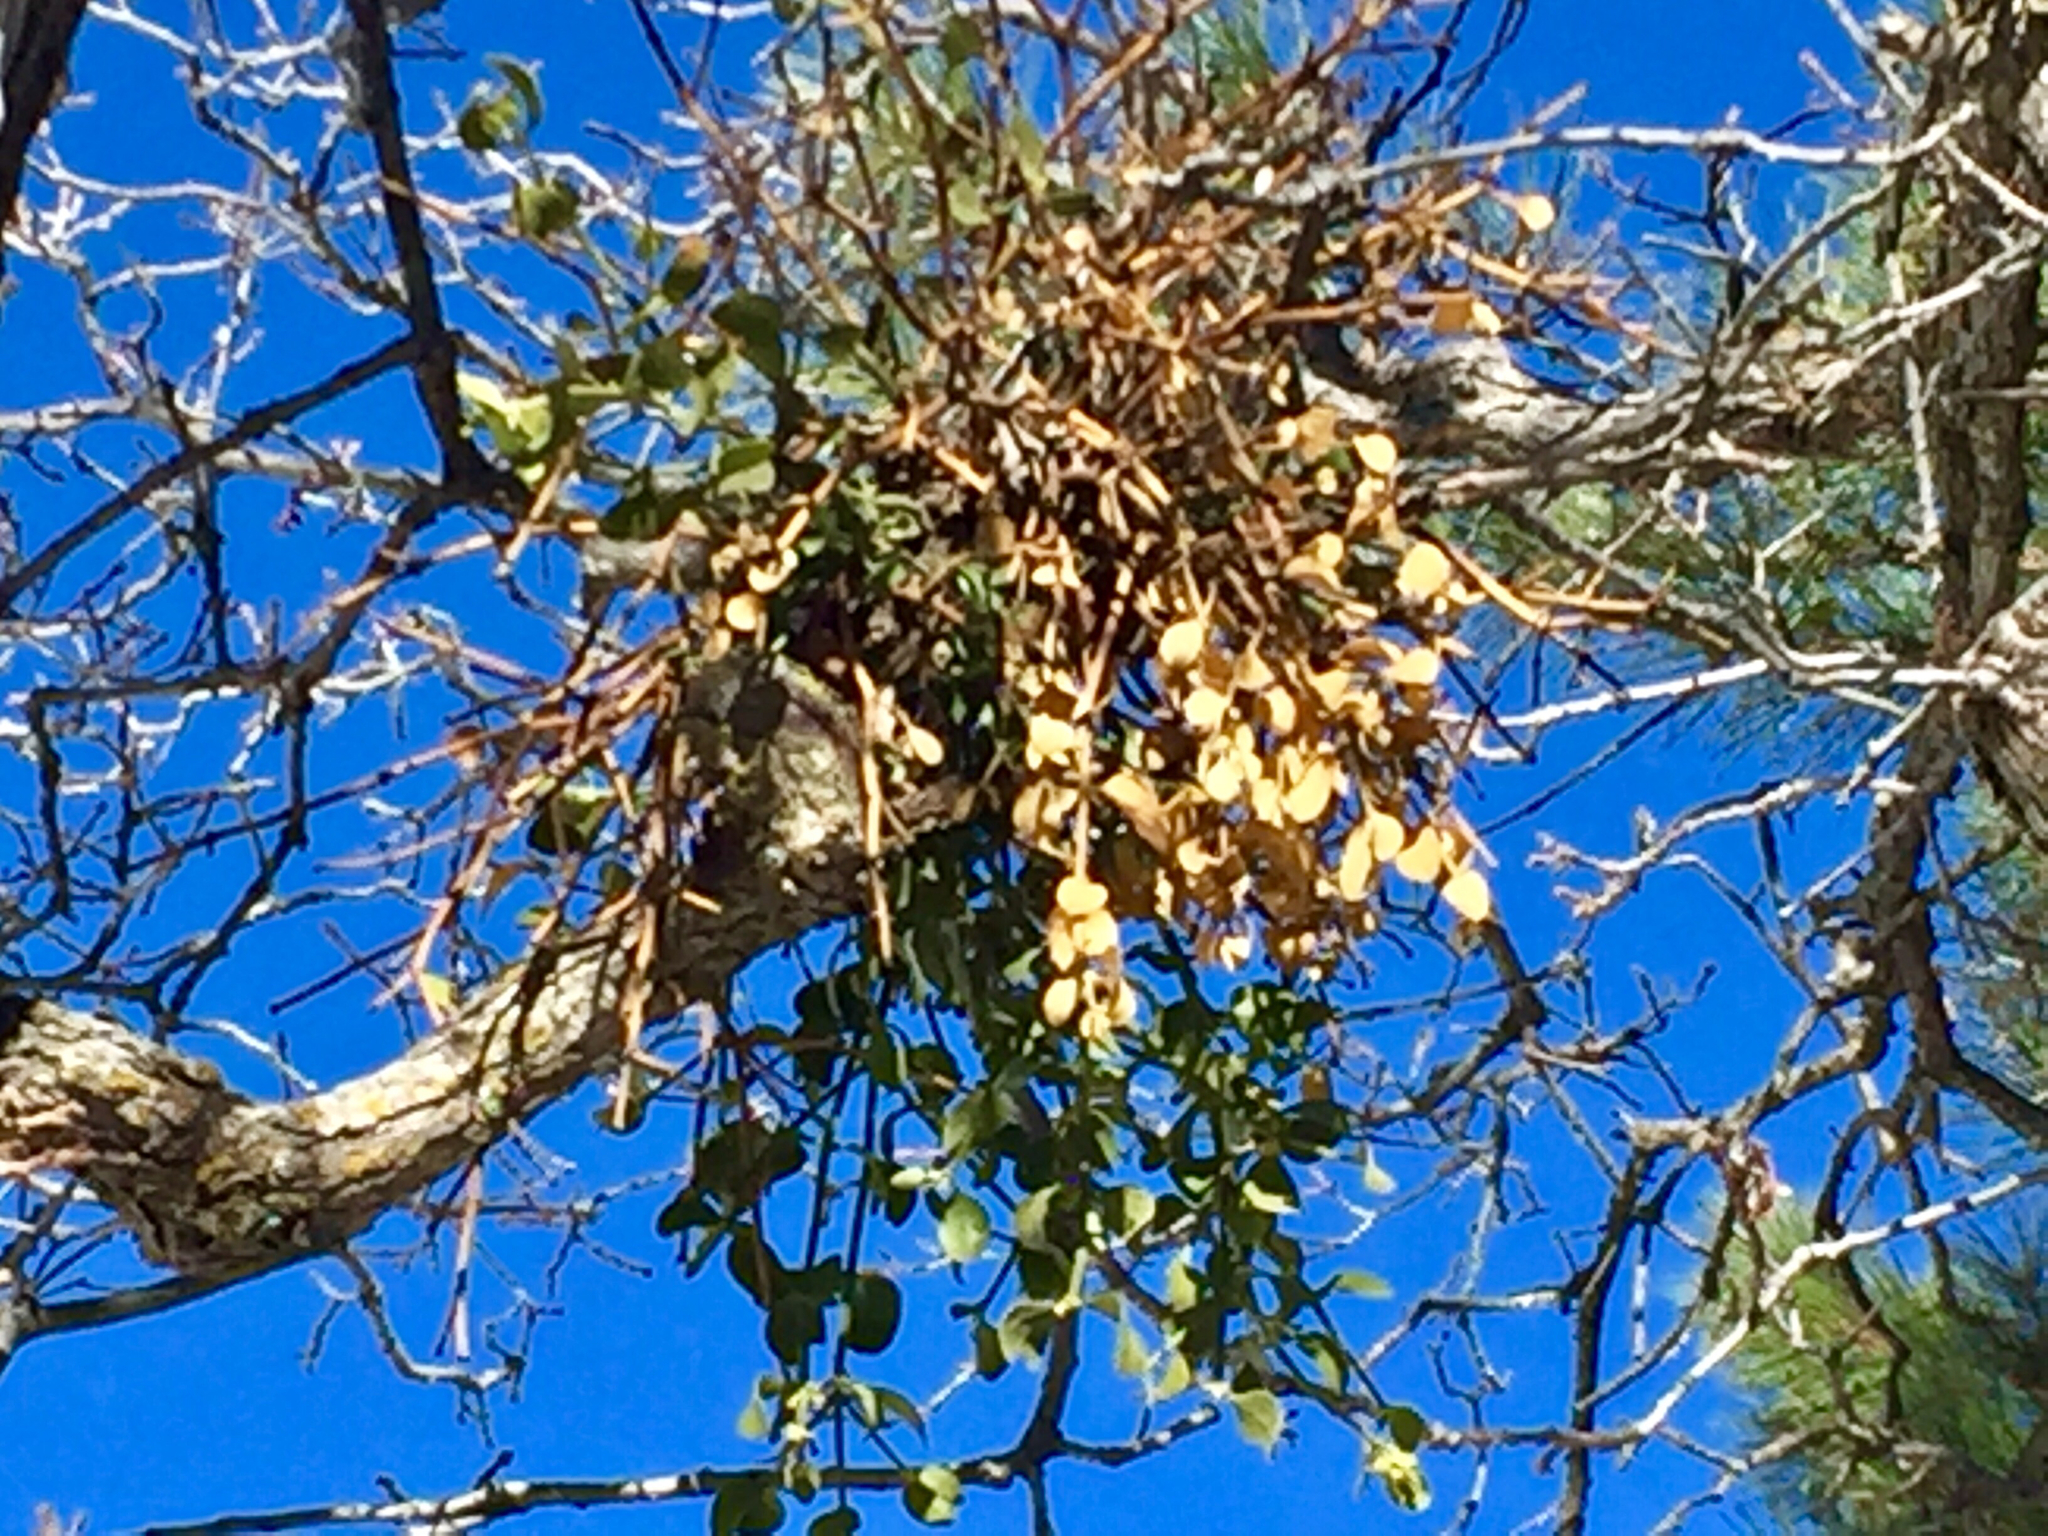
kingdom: Plantae
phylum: Tracheophyta
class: Magnoliopsida
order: Santalales
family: Viscaceae
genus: Phoradendron
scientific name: Phoradendron coryae
